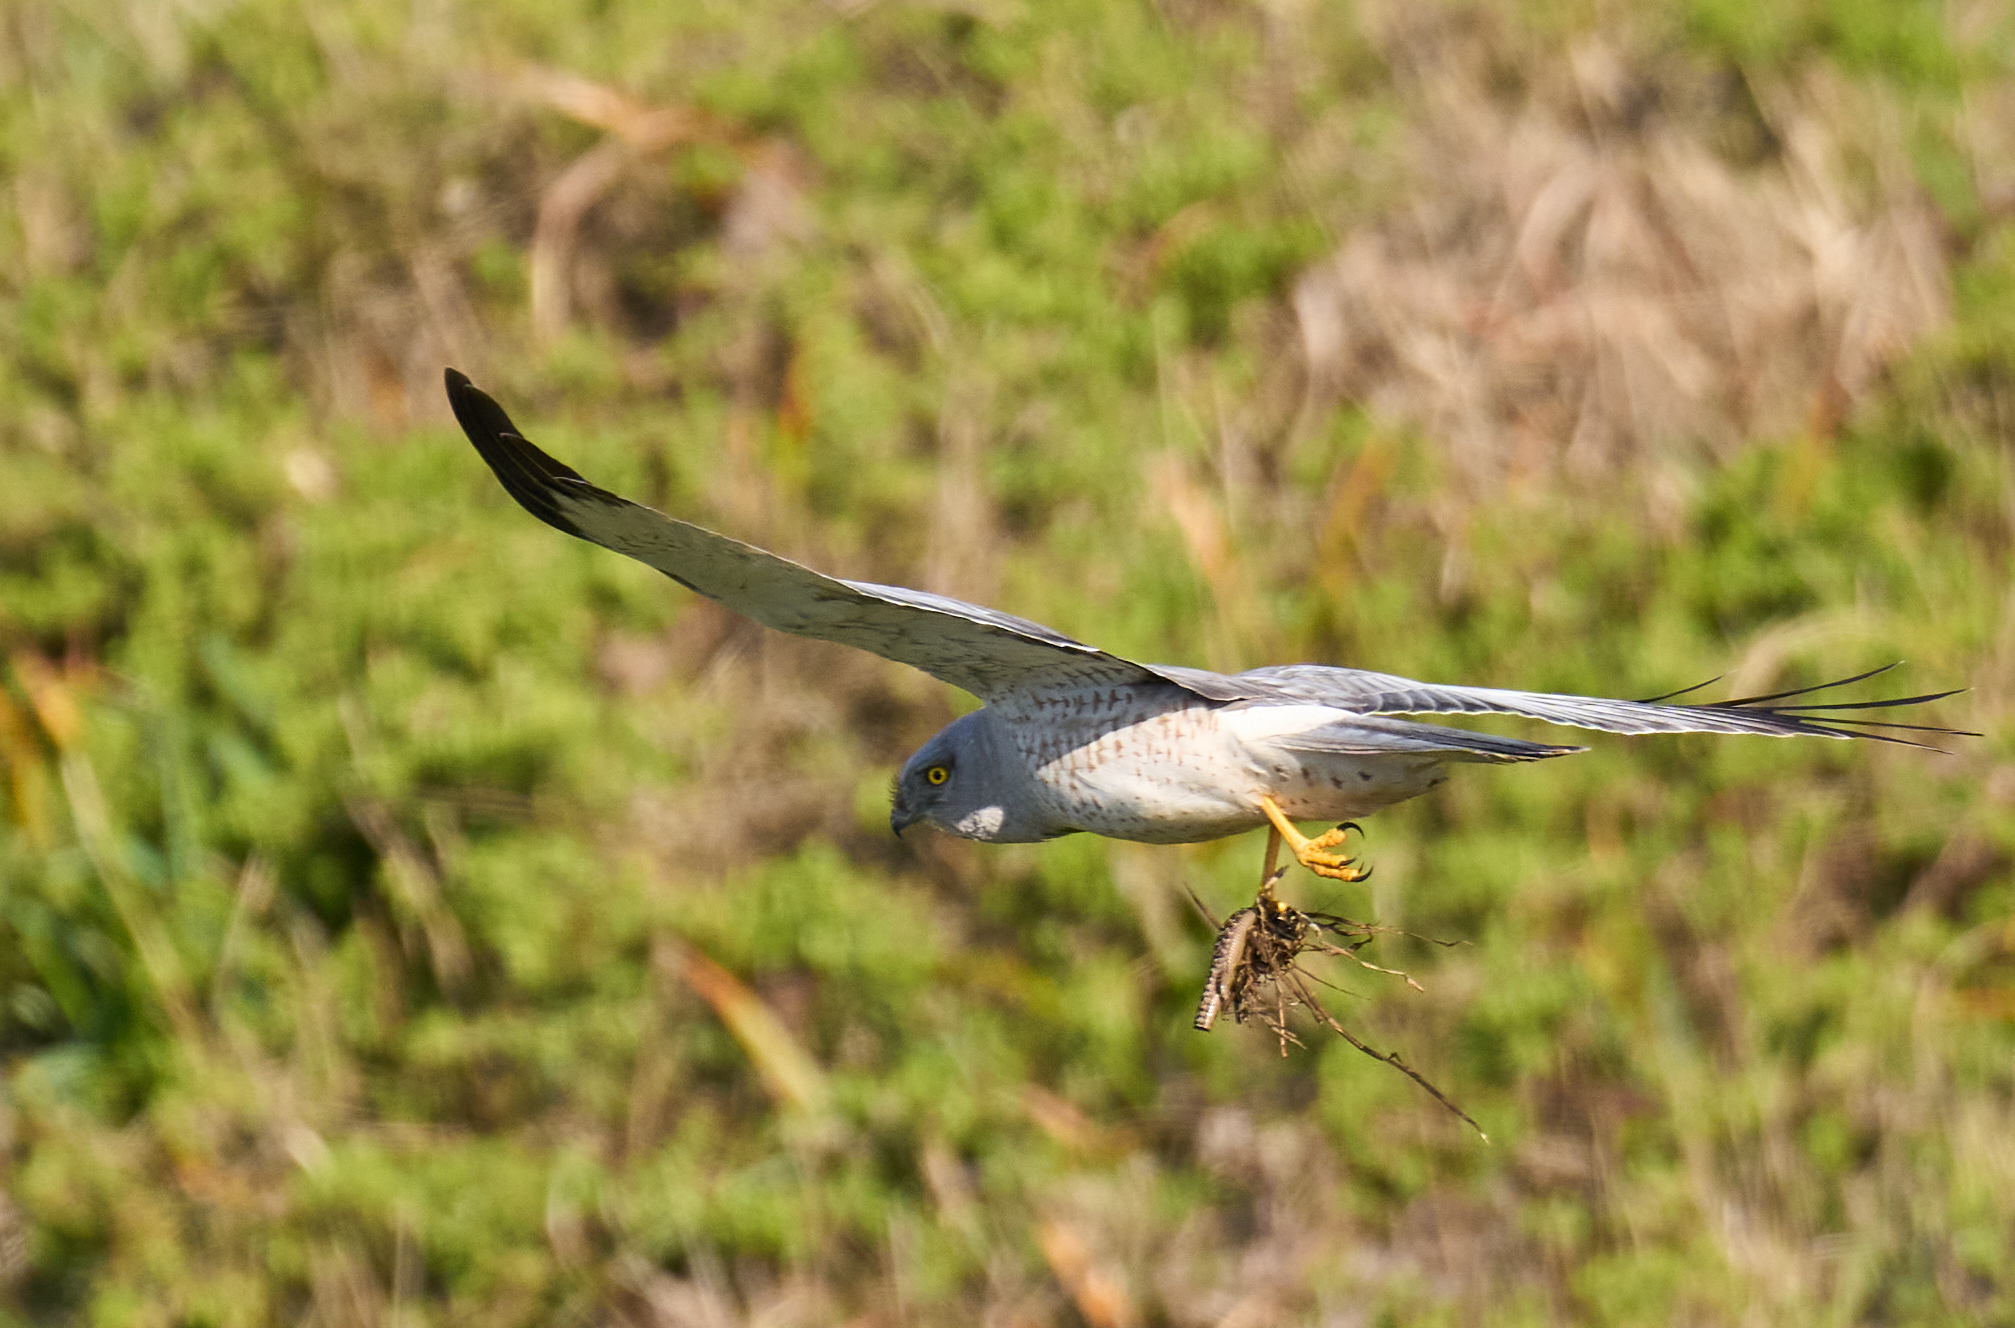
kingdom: Animalia
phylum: Chordata
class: Aves
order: Accipitriformes
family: Accipitridae
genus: Circus
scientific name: Circus cyaneus
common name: Hen harrier
